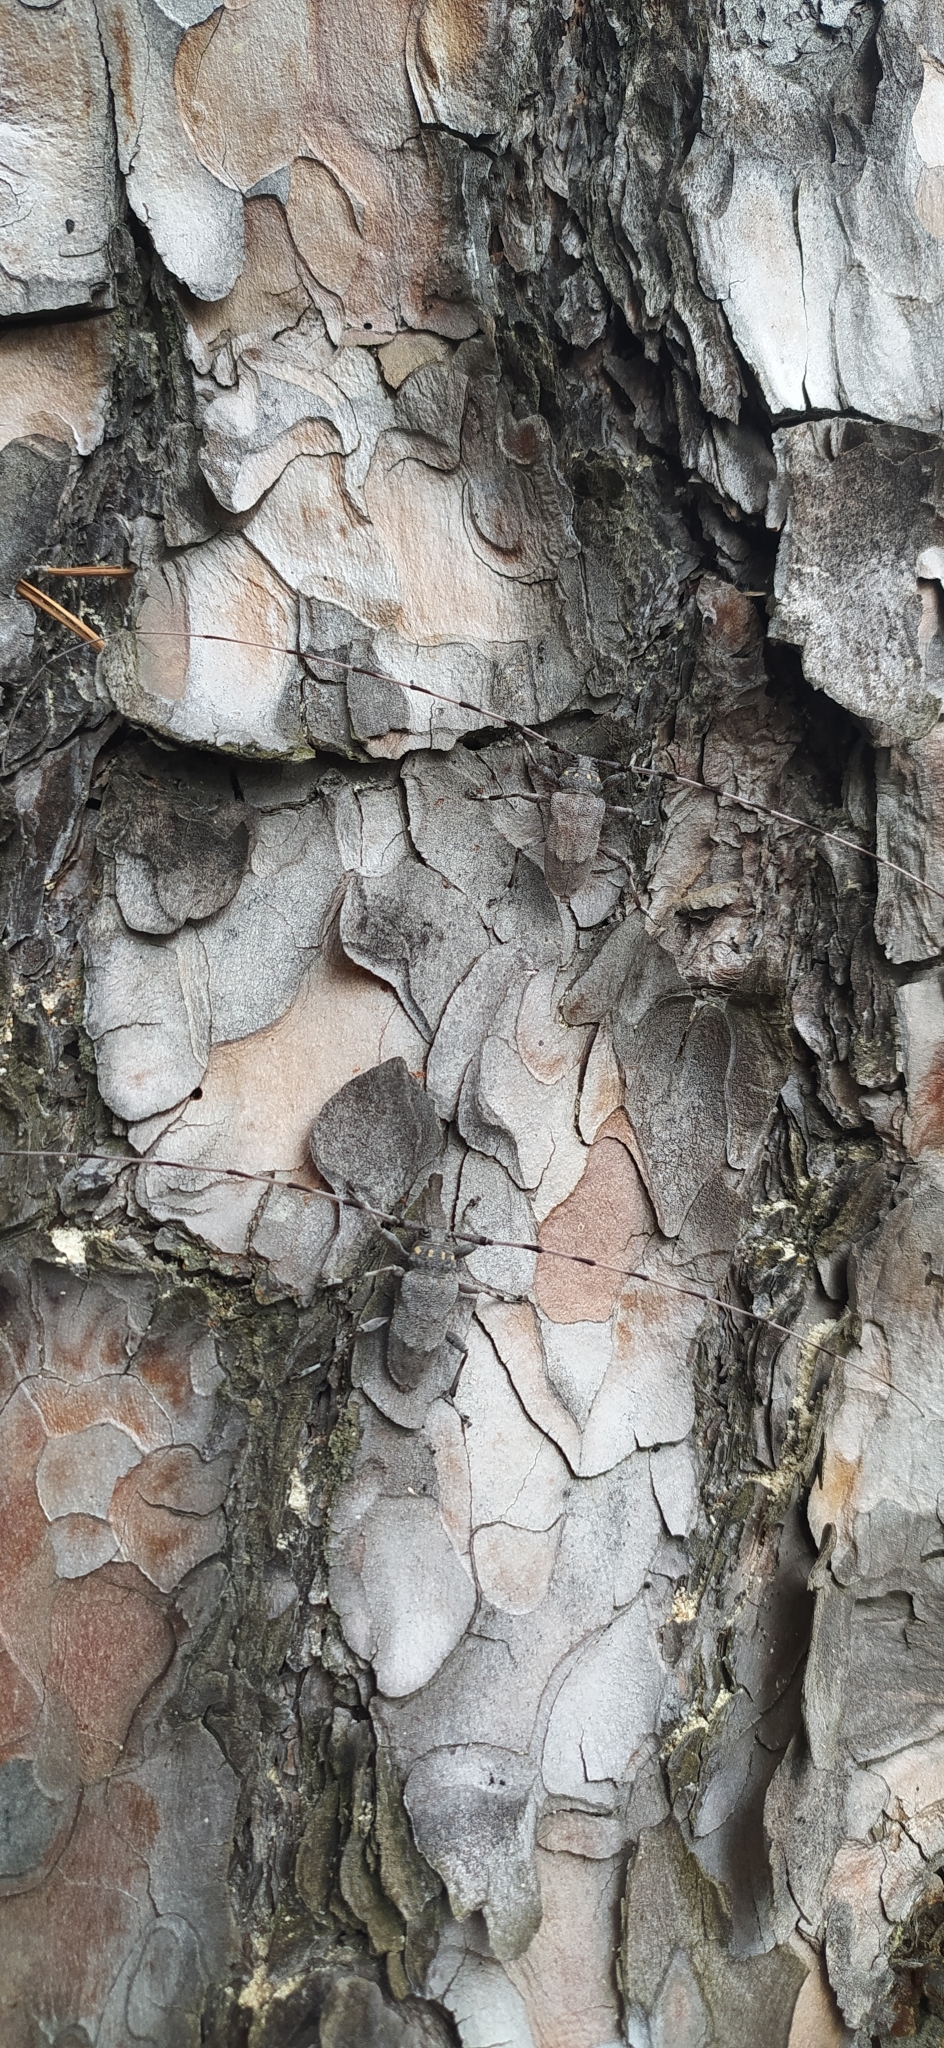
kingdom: Animalia
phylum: Arthropoda
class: Insecta
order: Coleoptera
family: Cerambycidae
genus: Acanthocinus
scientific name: Acanthocinus aedilis
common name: Timberman beetle
